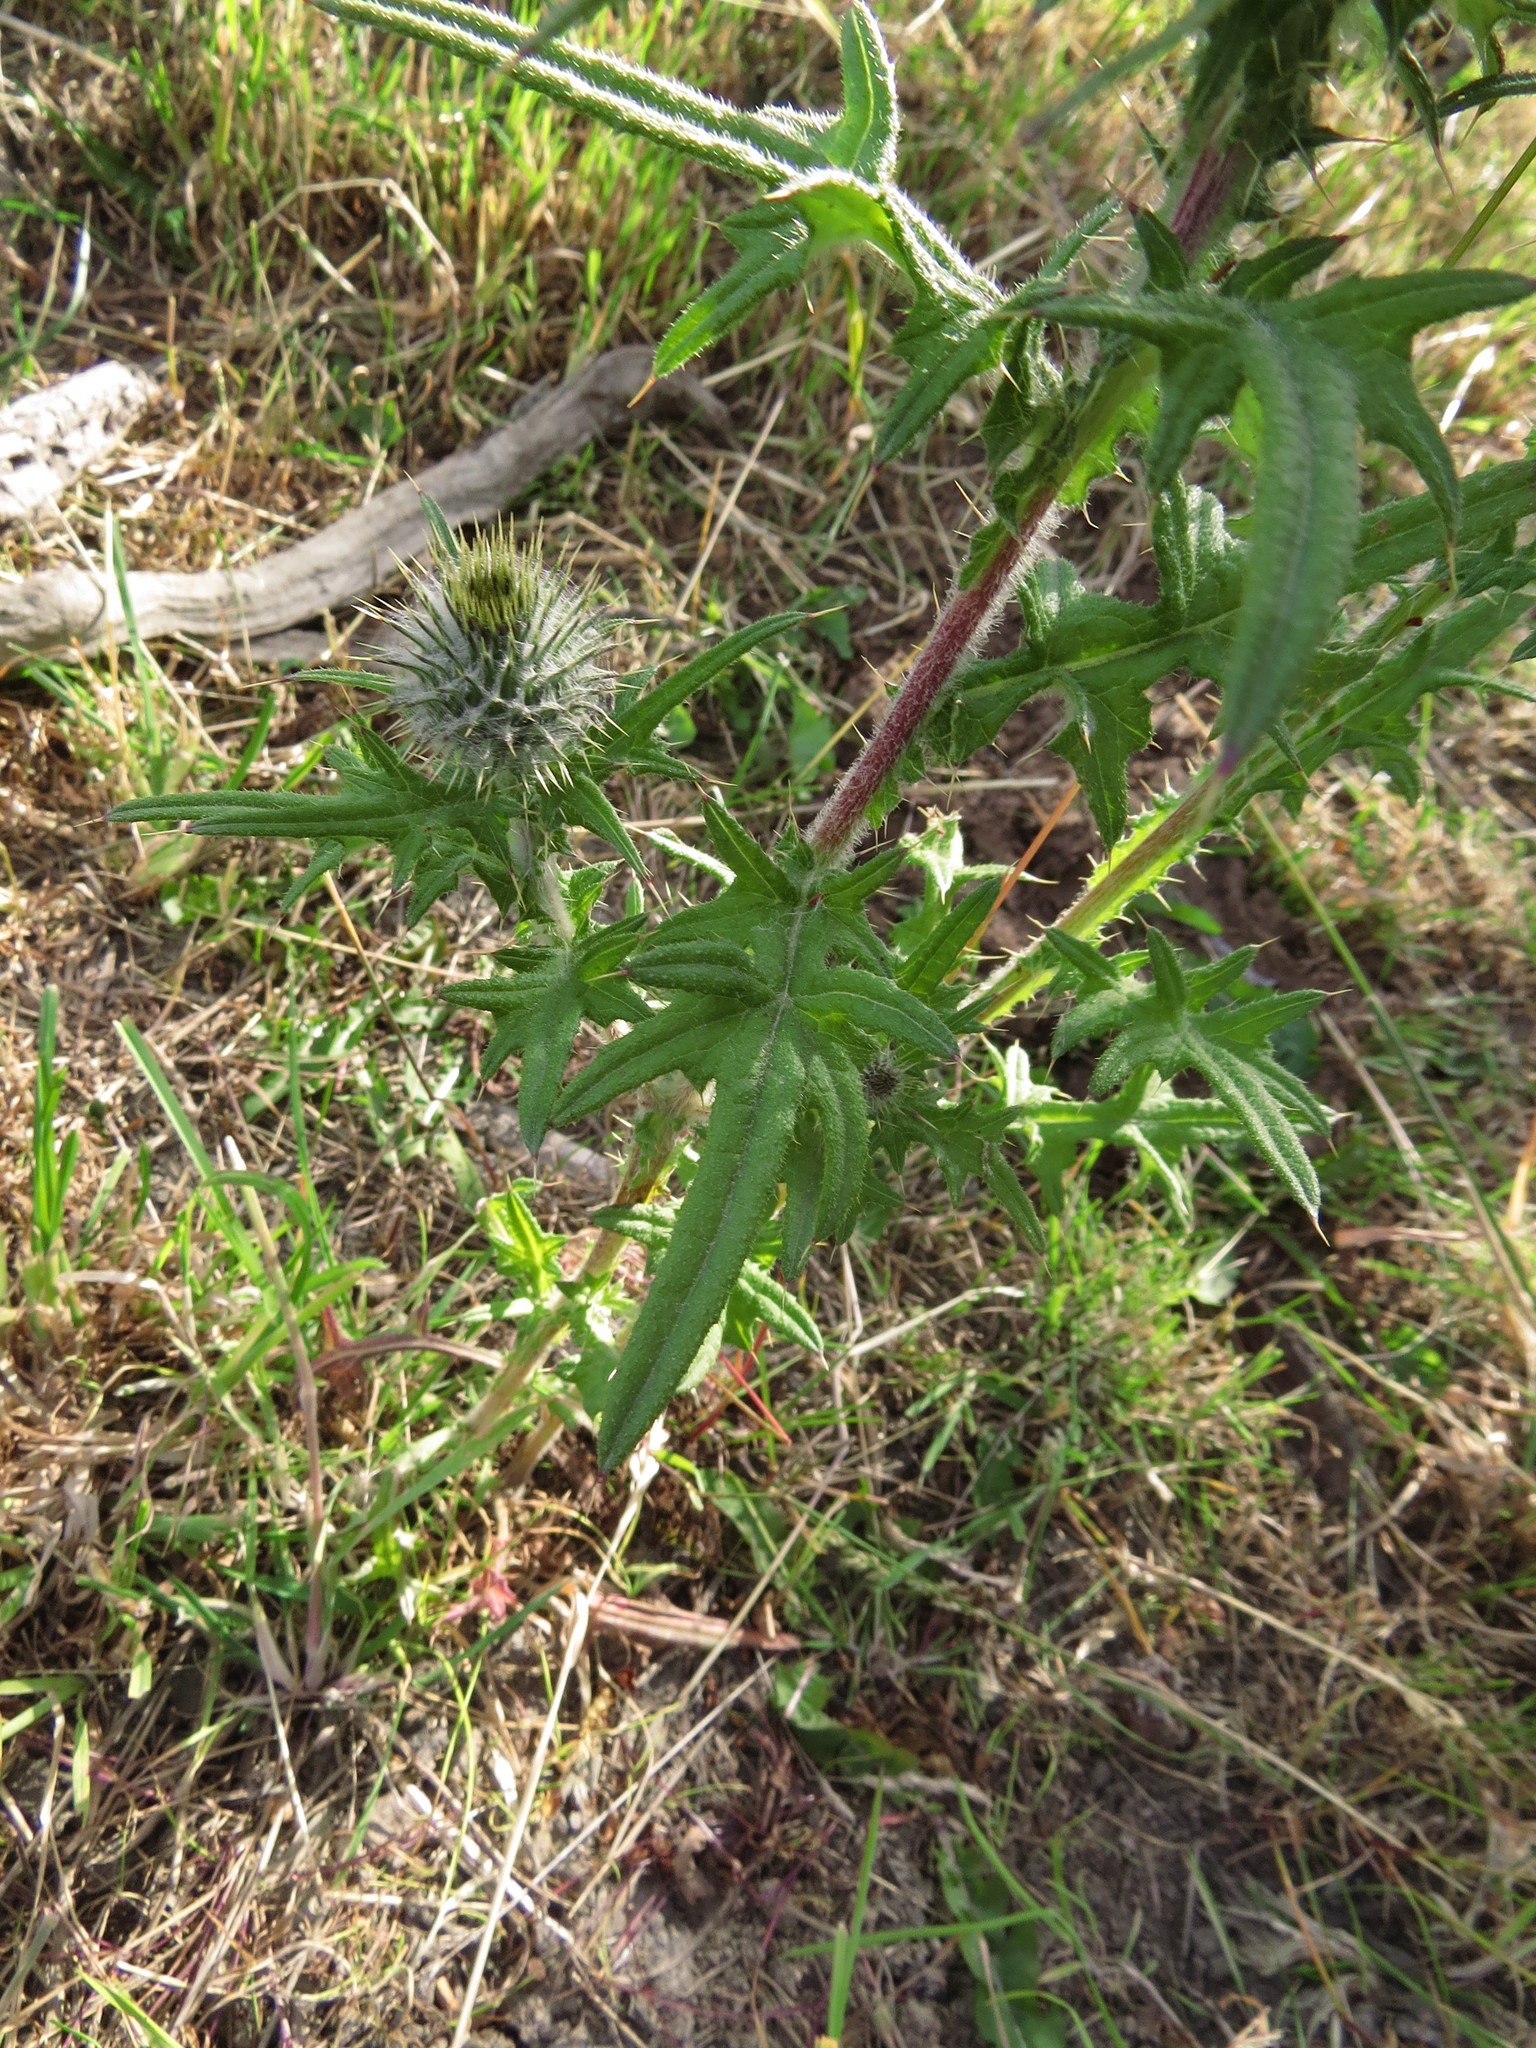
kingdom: Plantae
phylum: Tracheophyta
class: Magnoliopsida
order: Asterales
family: Asteraceae
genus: Cirsium
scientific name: Cirsium vulgare
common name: Bull thistle
